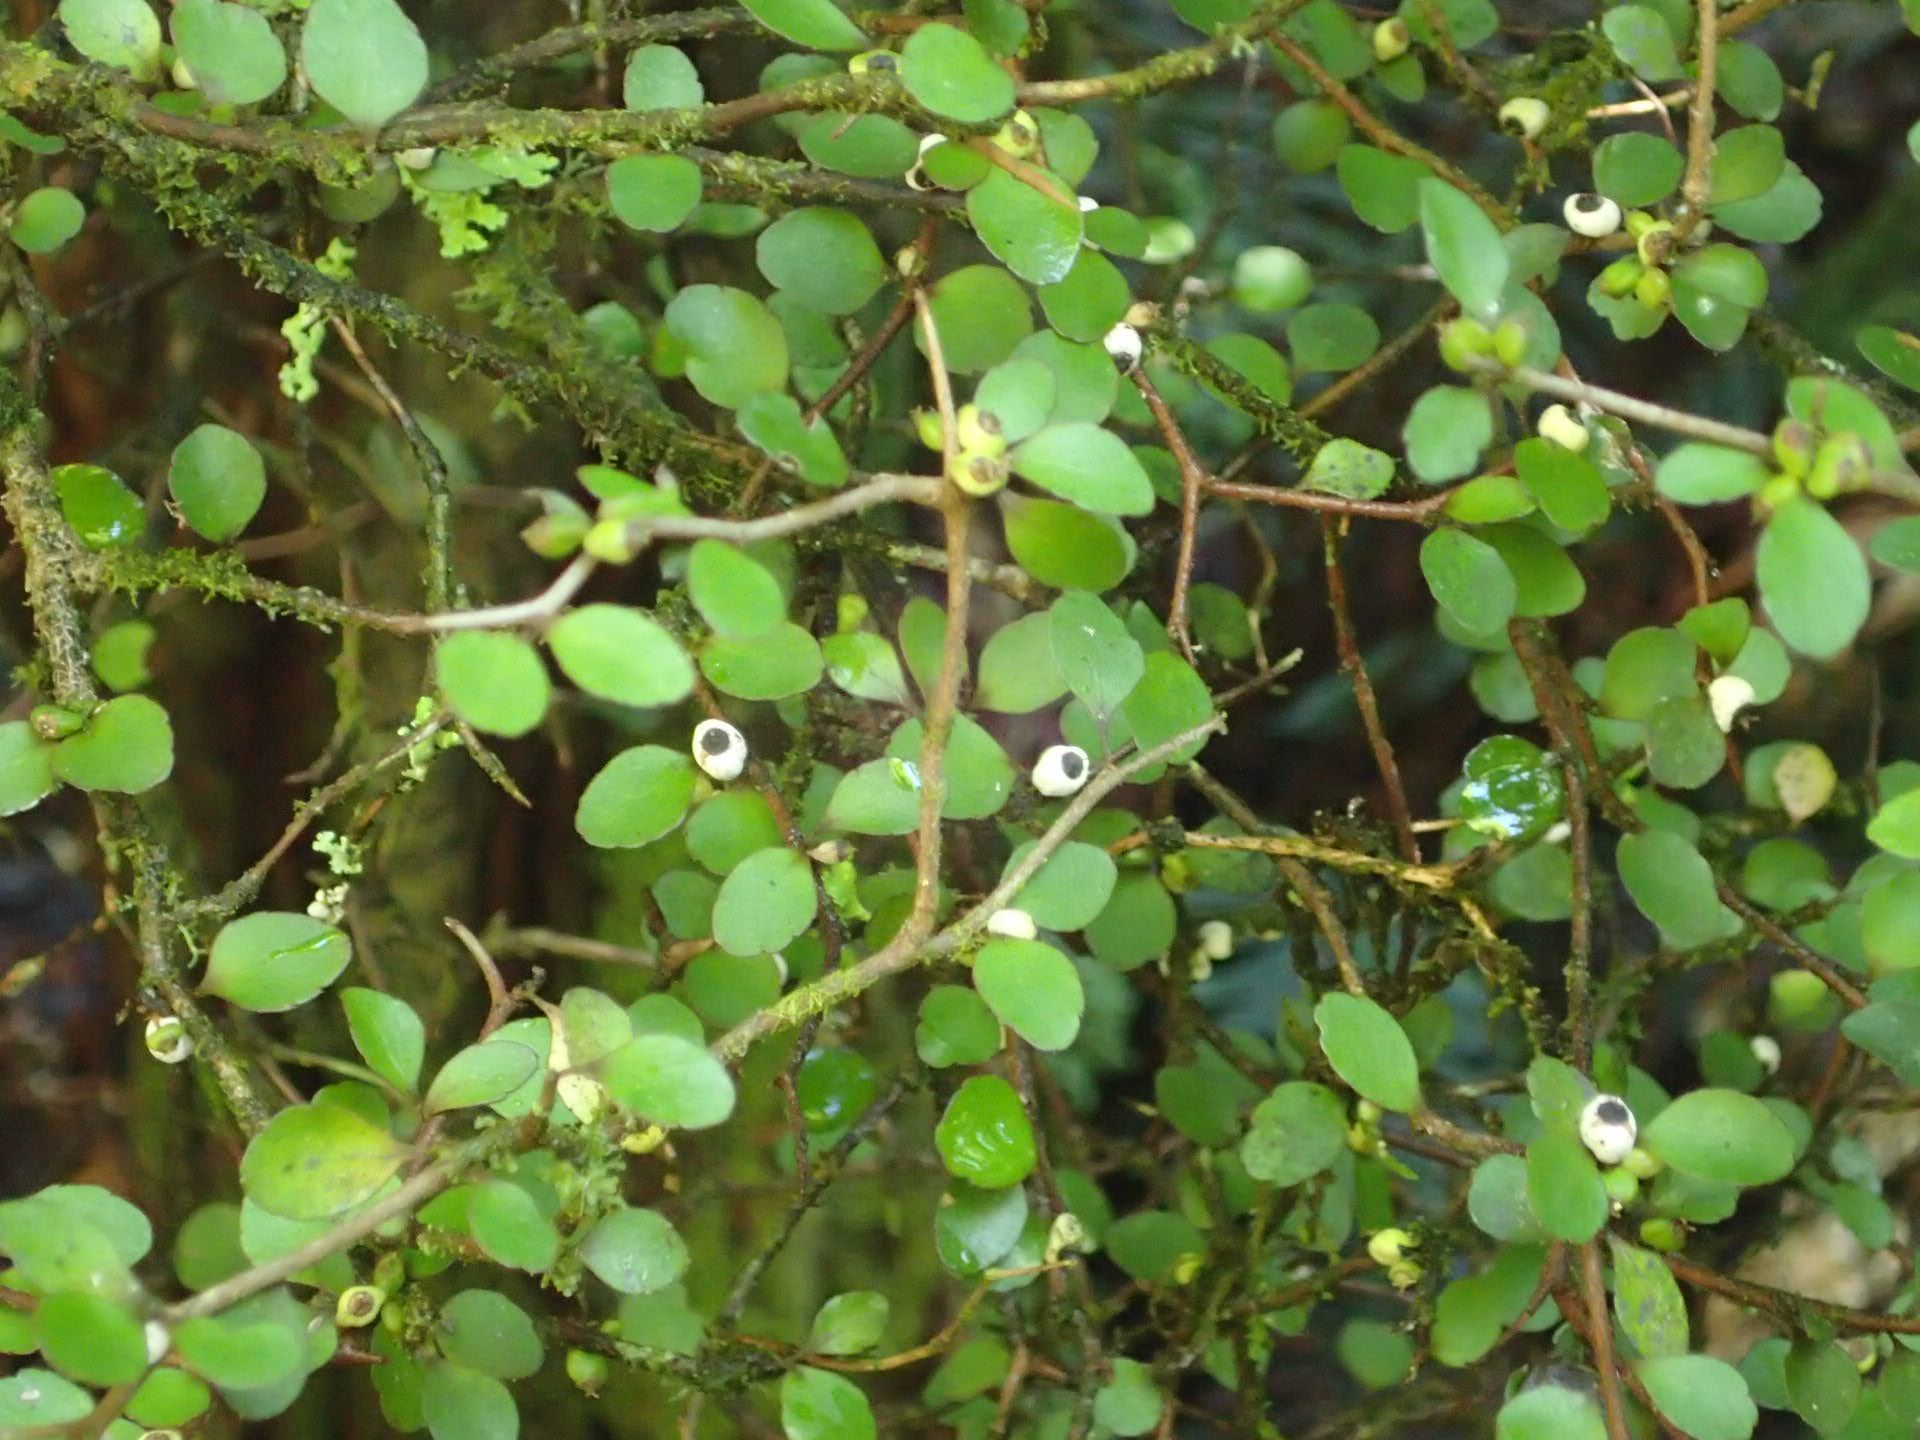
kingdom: Plantae
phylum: Tracheophyta
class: Magnoliopsida
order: Apiales
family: Araliaceae
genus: Raukaua
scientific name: Raukaua anomalus
